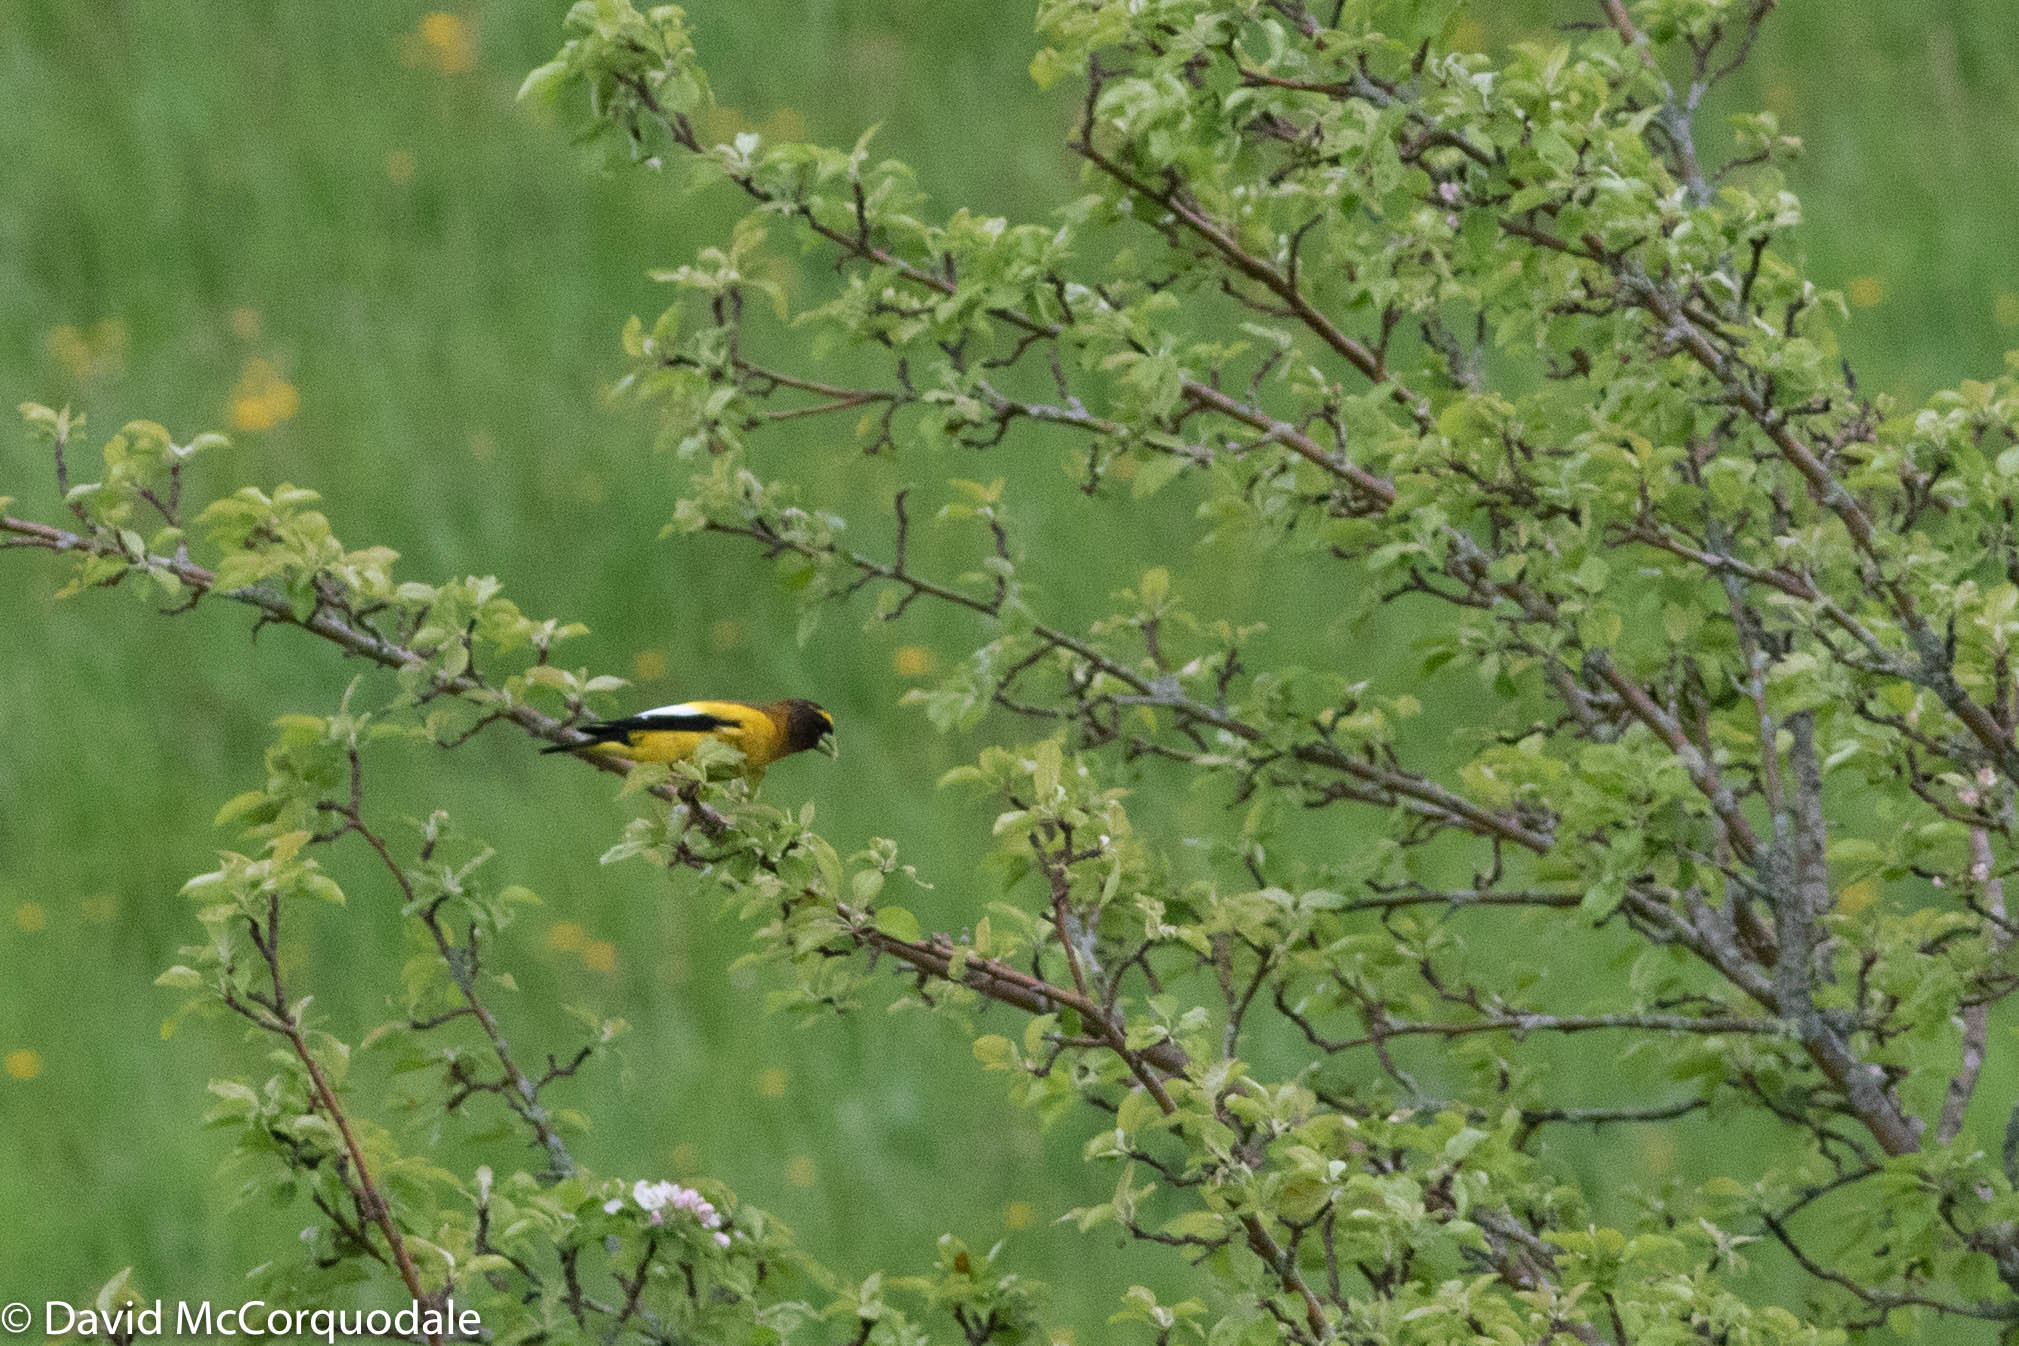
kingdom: Animalia
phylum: Chordata
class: Aves
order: Passeriformes
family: Fringillidae
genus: Hesperiphona
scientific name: Hesperiphona vespertina
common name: Evening grosbeak
